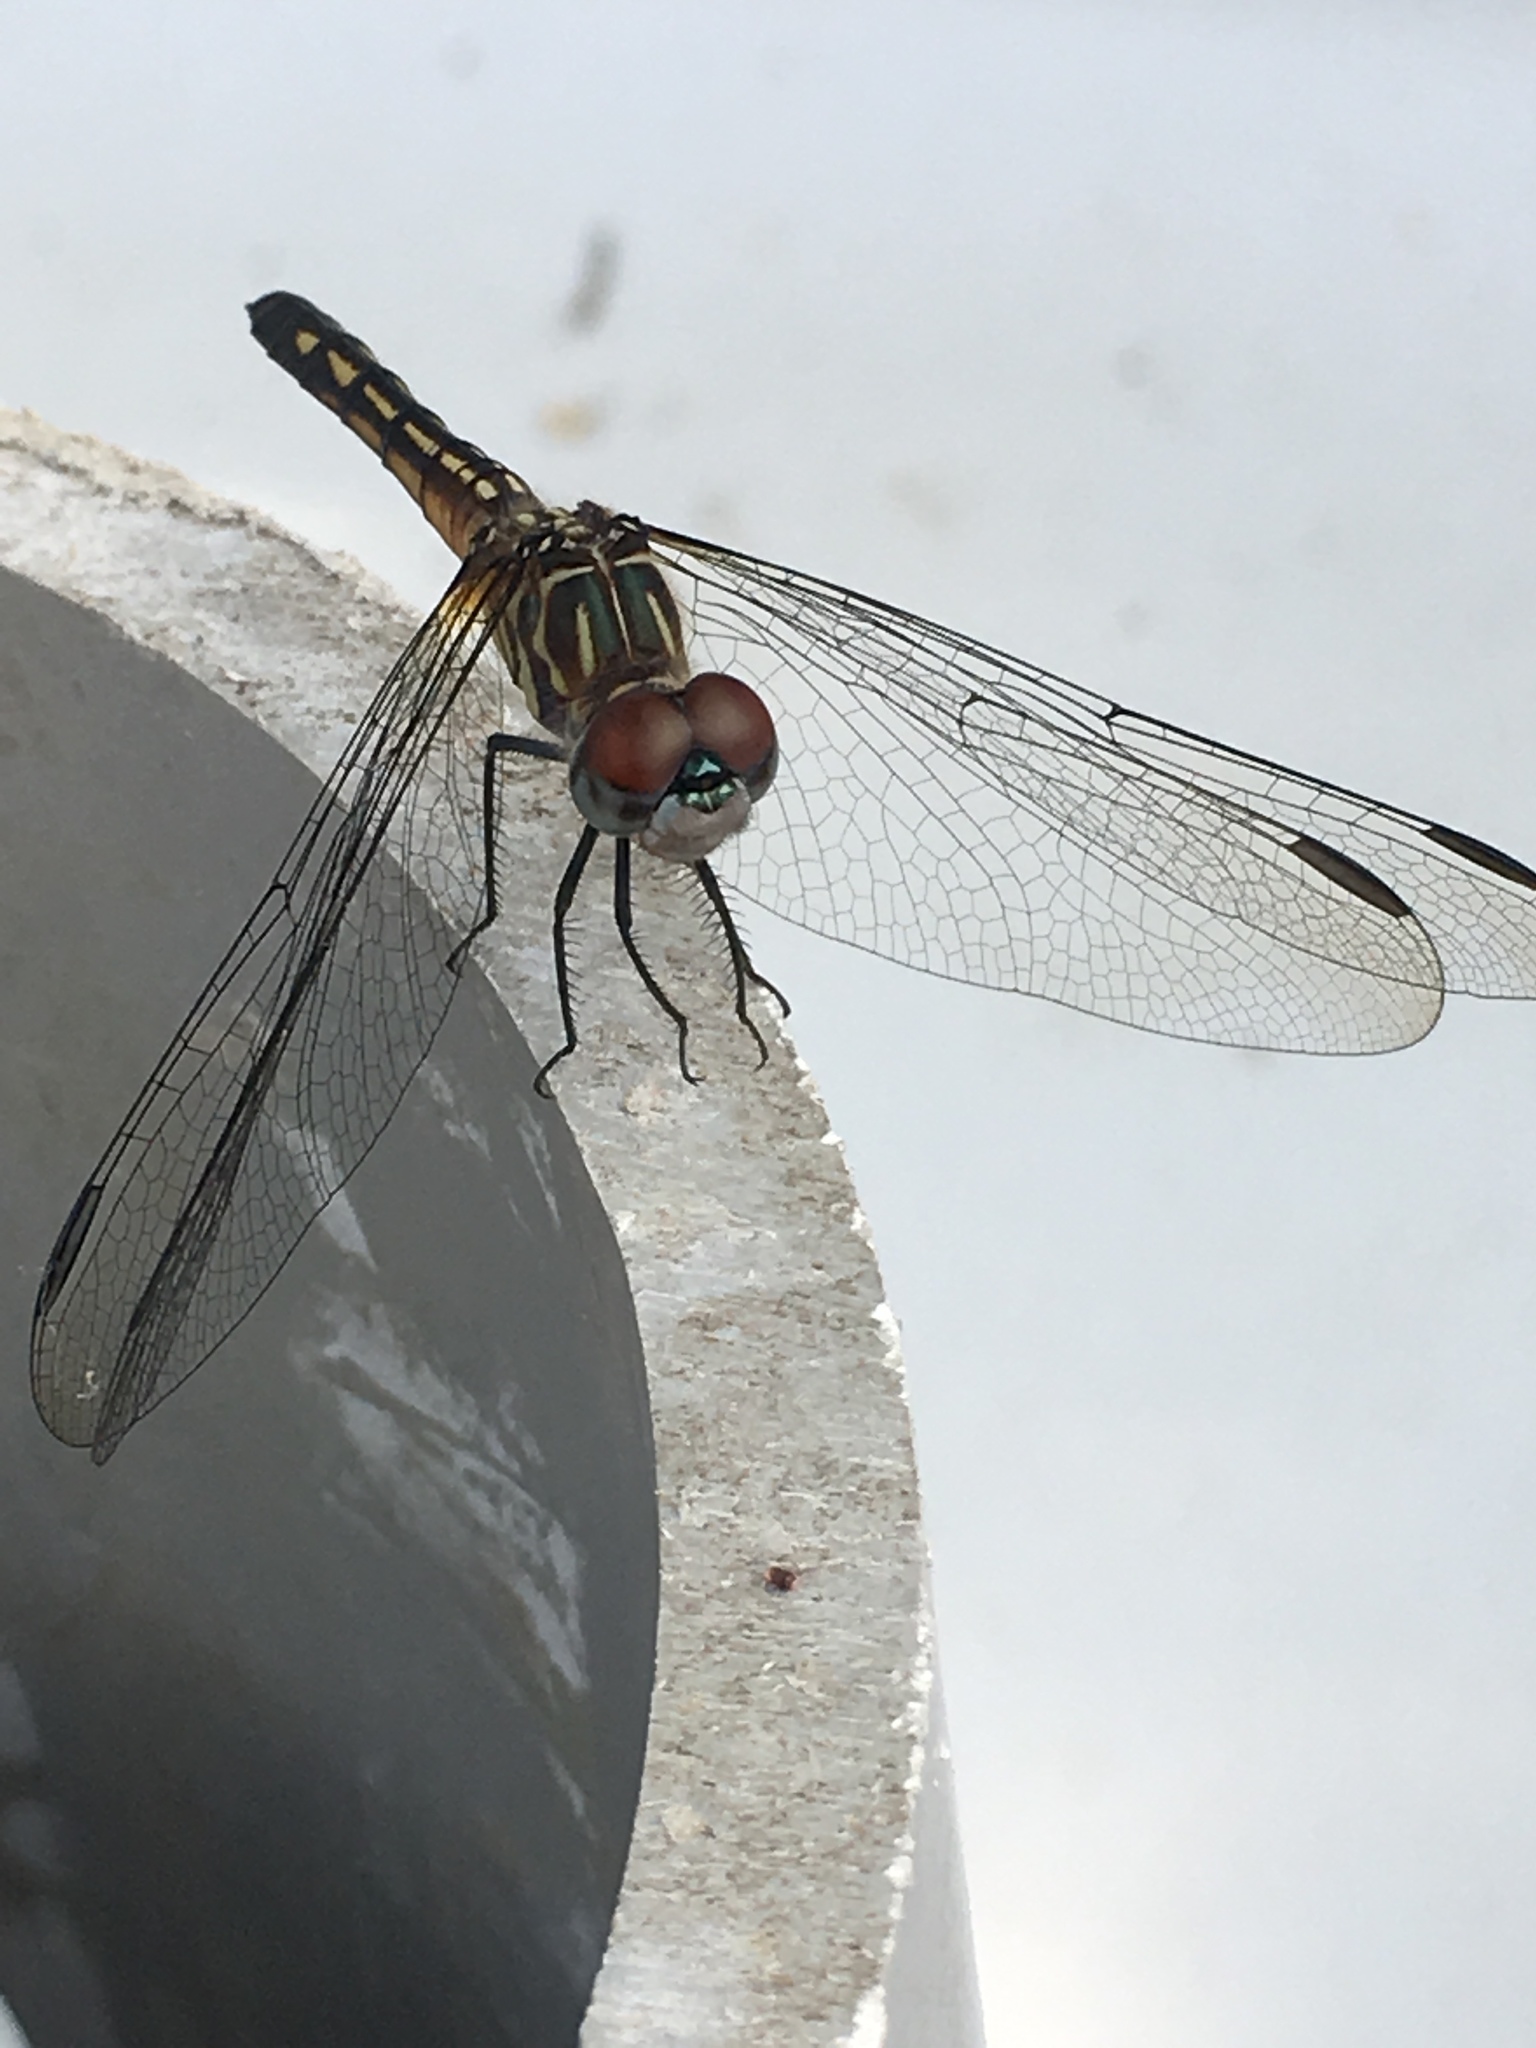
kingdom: Animalia
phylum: Arthropoda
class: Insecta
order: Odonata
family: Libellulidae
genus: Pachydiplax
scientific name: Pachydiplax longipennis
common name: Blue dasher
